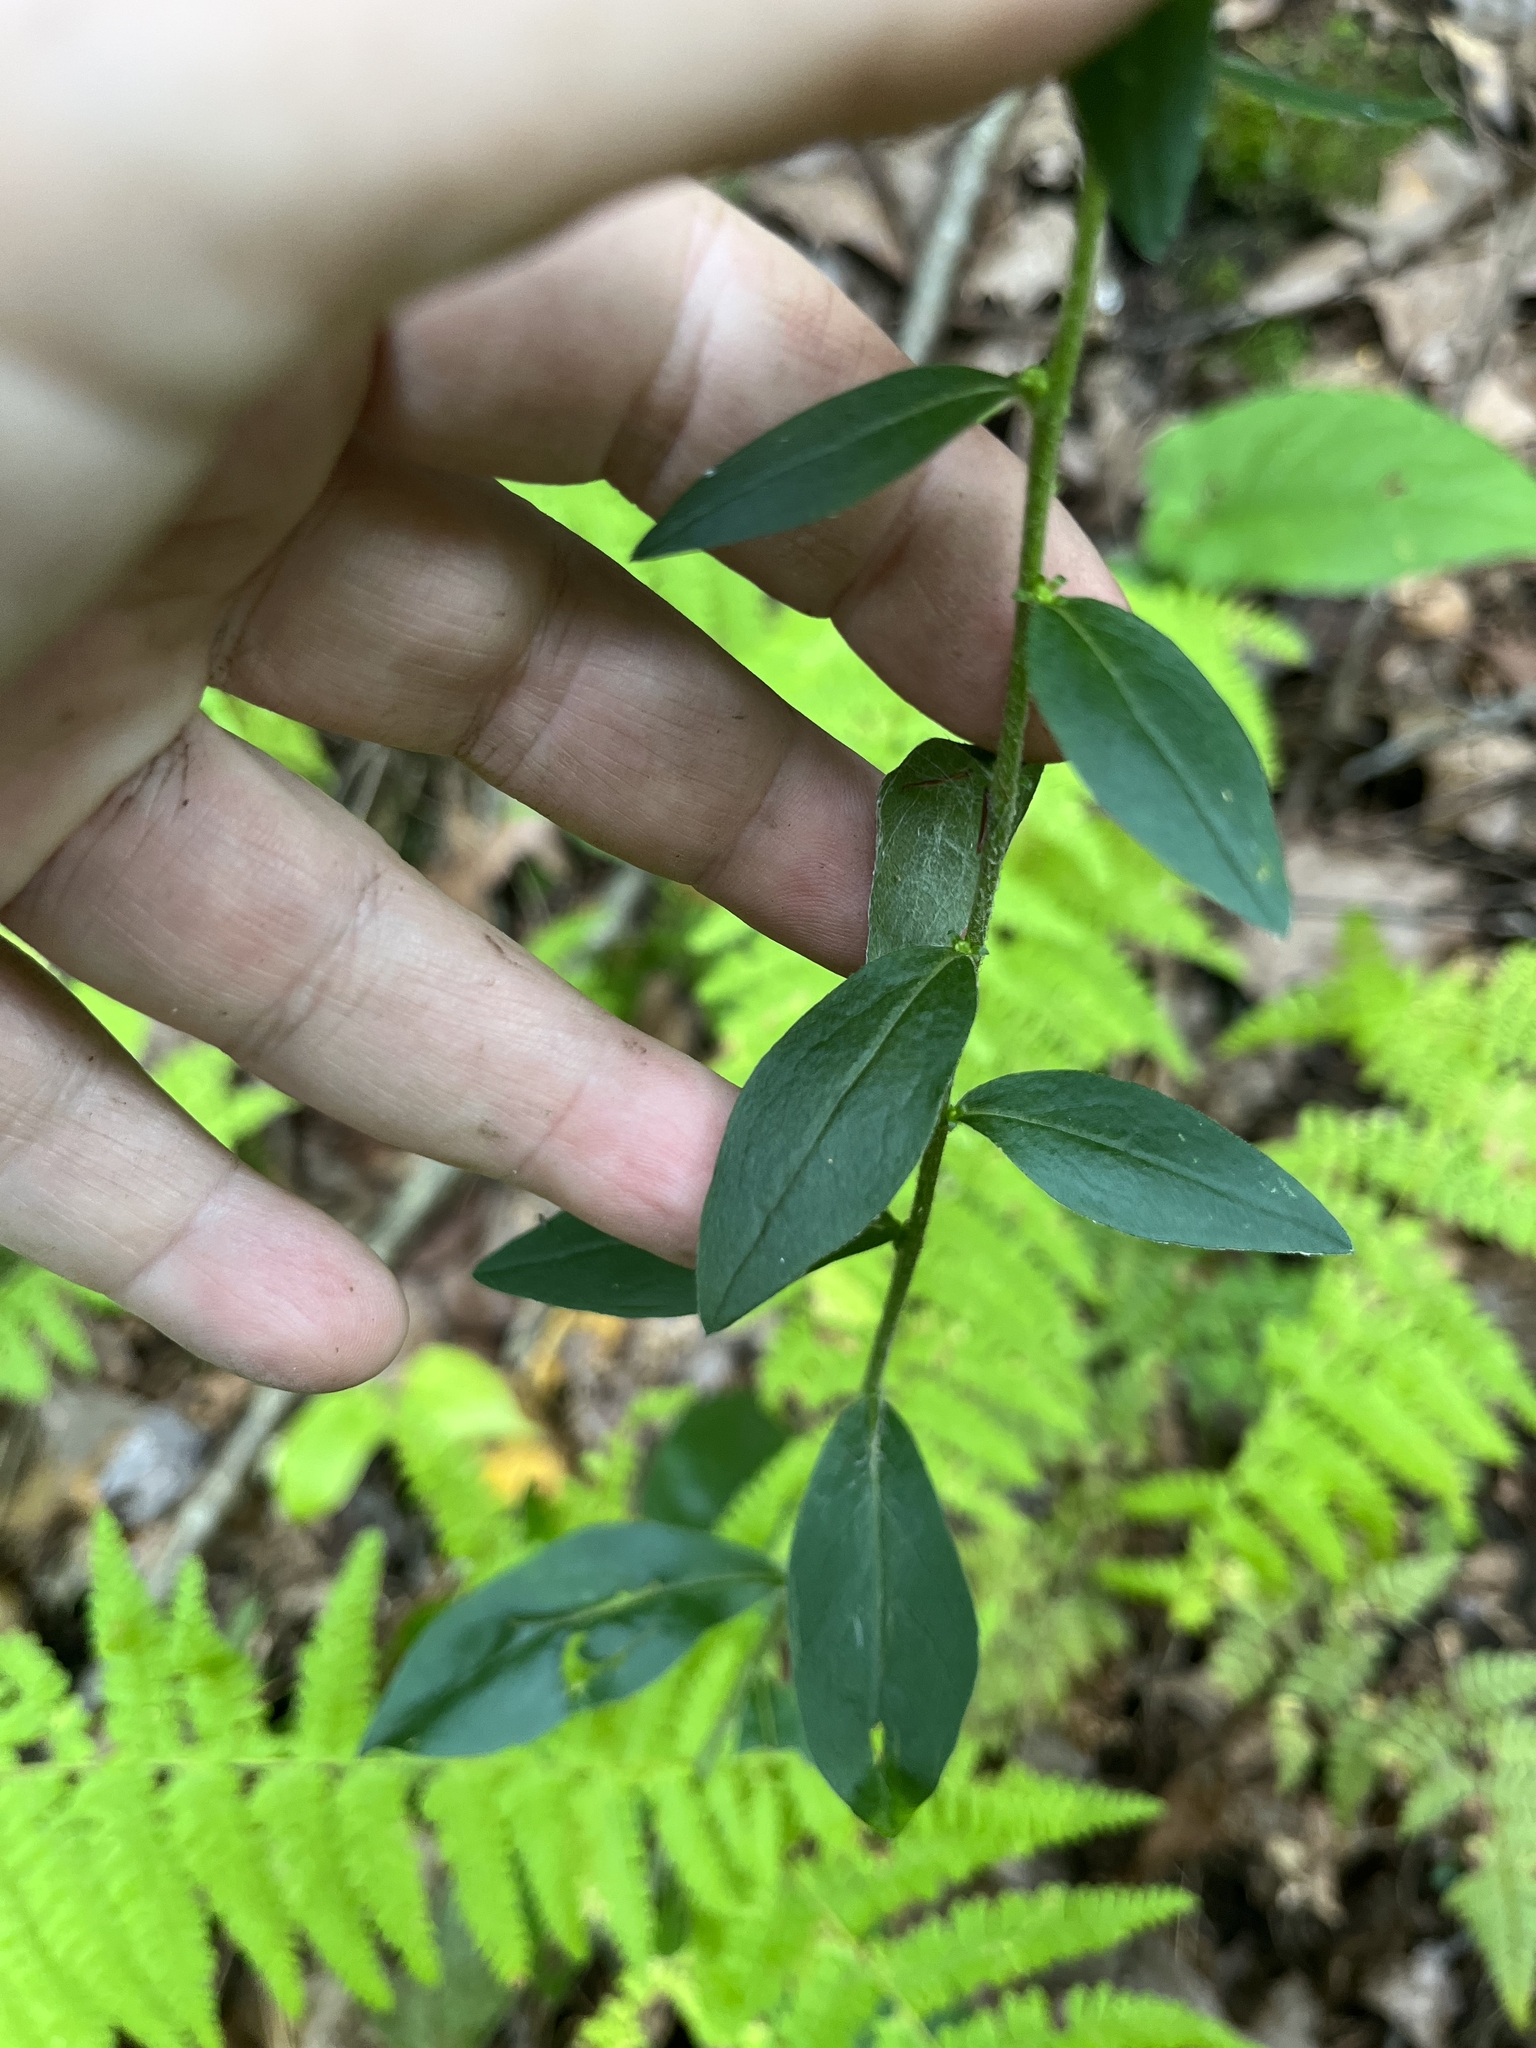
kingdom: Plantae
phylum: Tracheophyta
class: Magnoliopsida
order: Asterales
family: Asteraceae
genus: Solidago
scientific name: Solidago bicolor
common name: Silverrod
